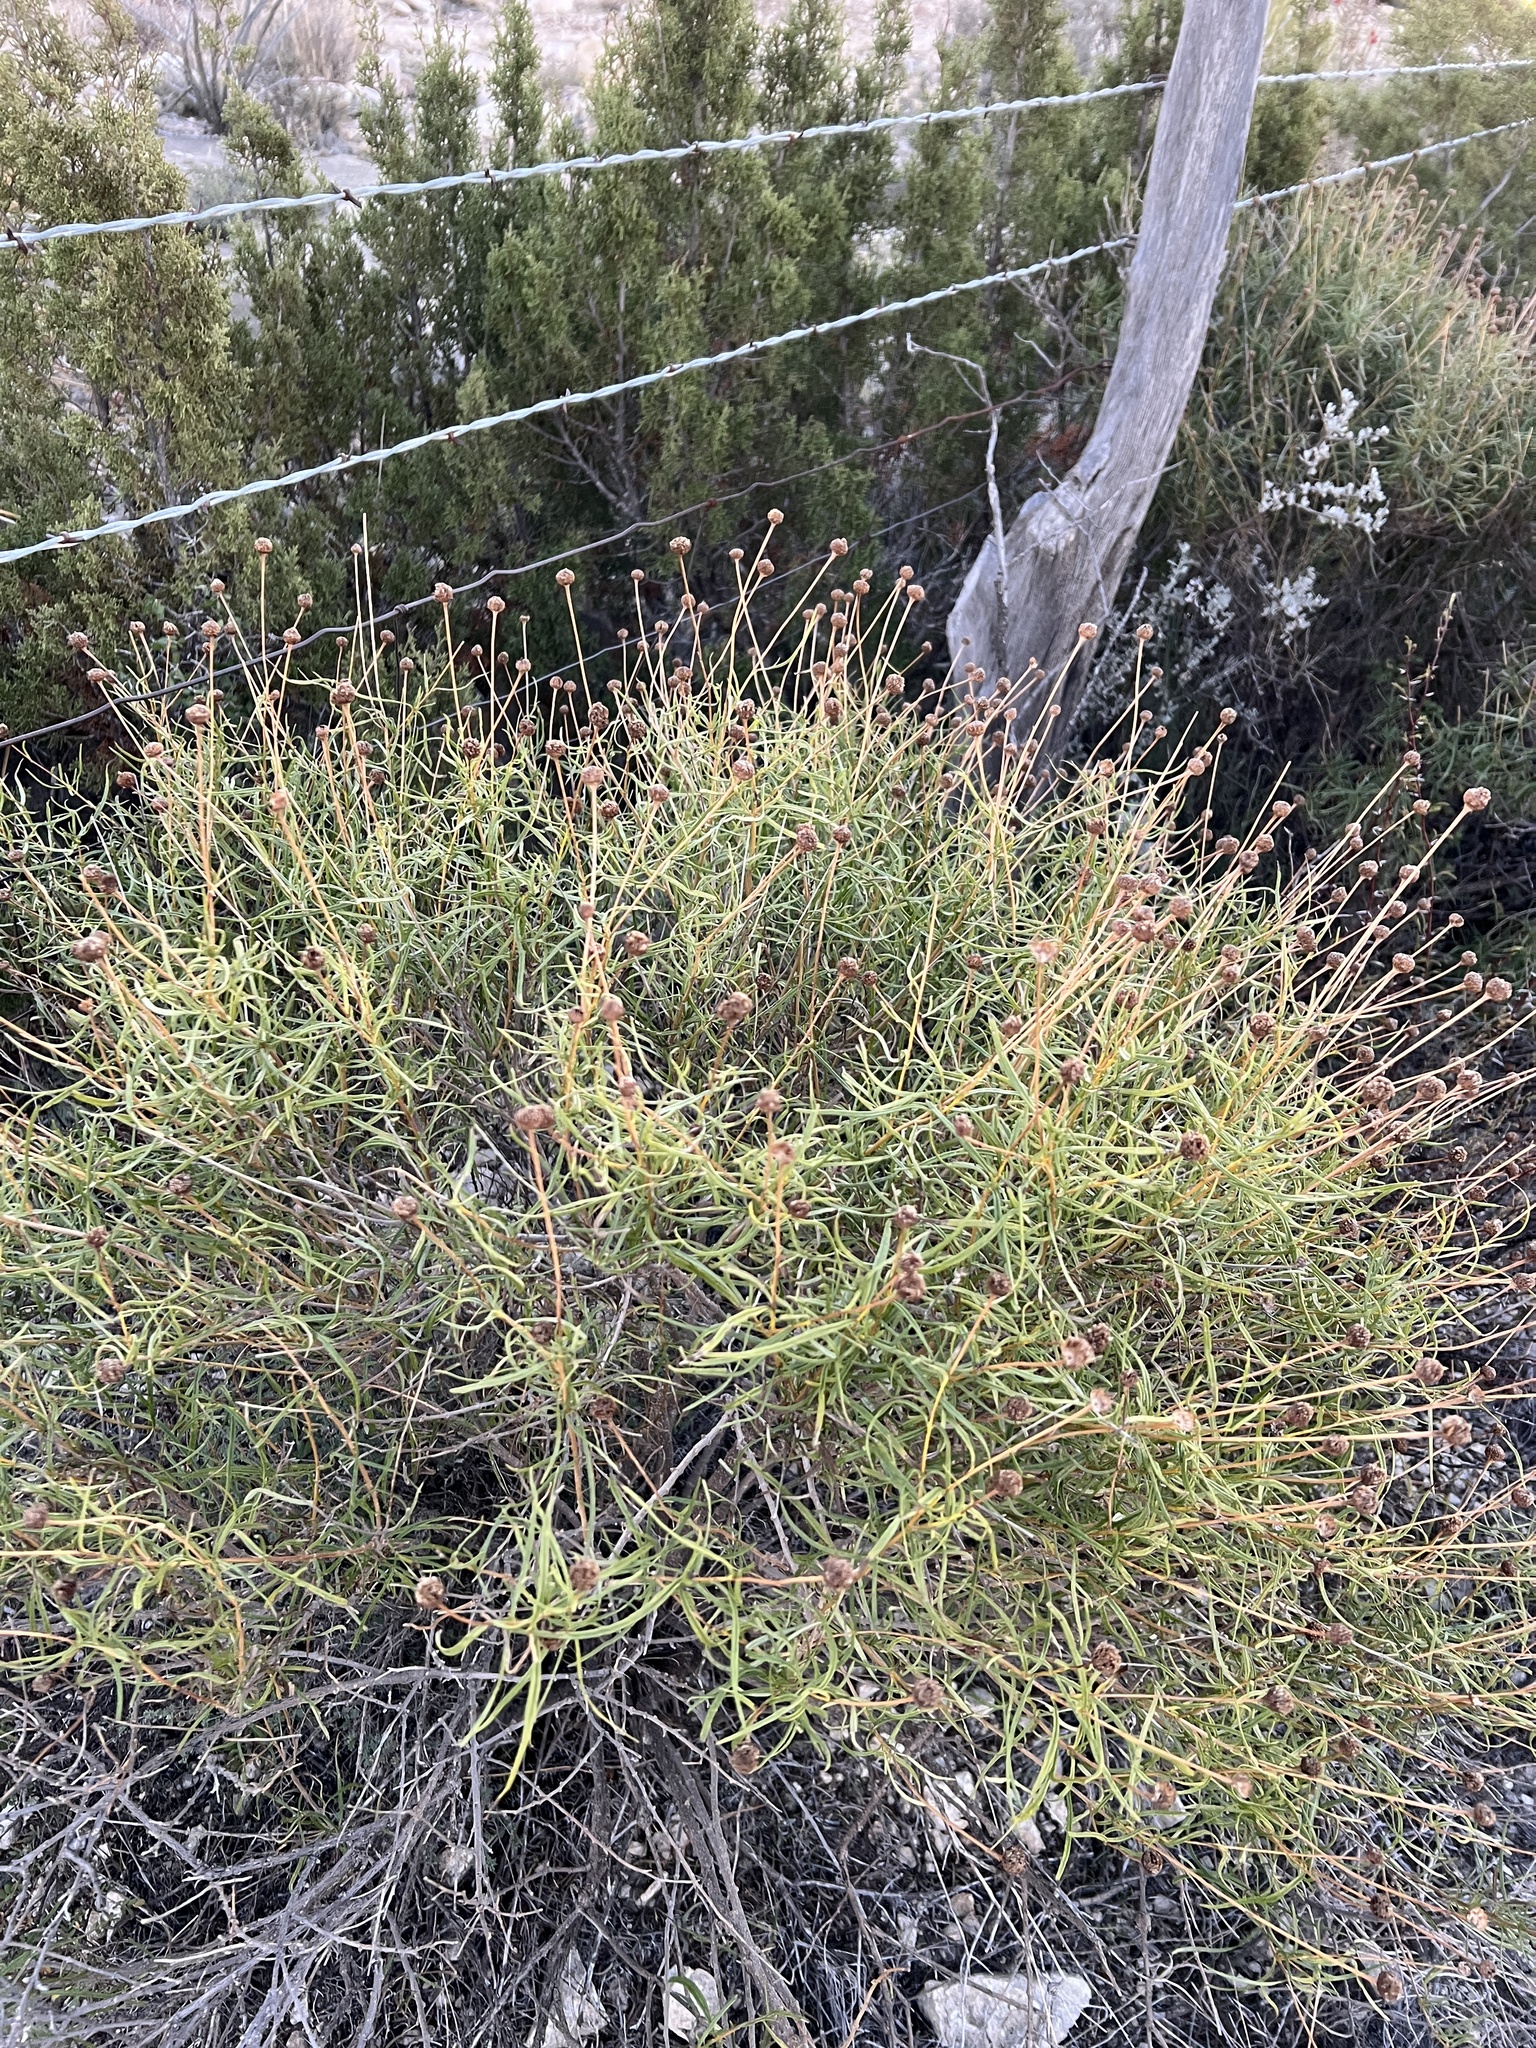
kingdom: Plantae
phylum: Tracheophyta
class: Magnoliopsida
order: Asterales
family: Asteraceae
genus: Sidneya
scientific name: Sidneya tenuifolia
